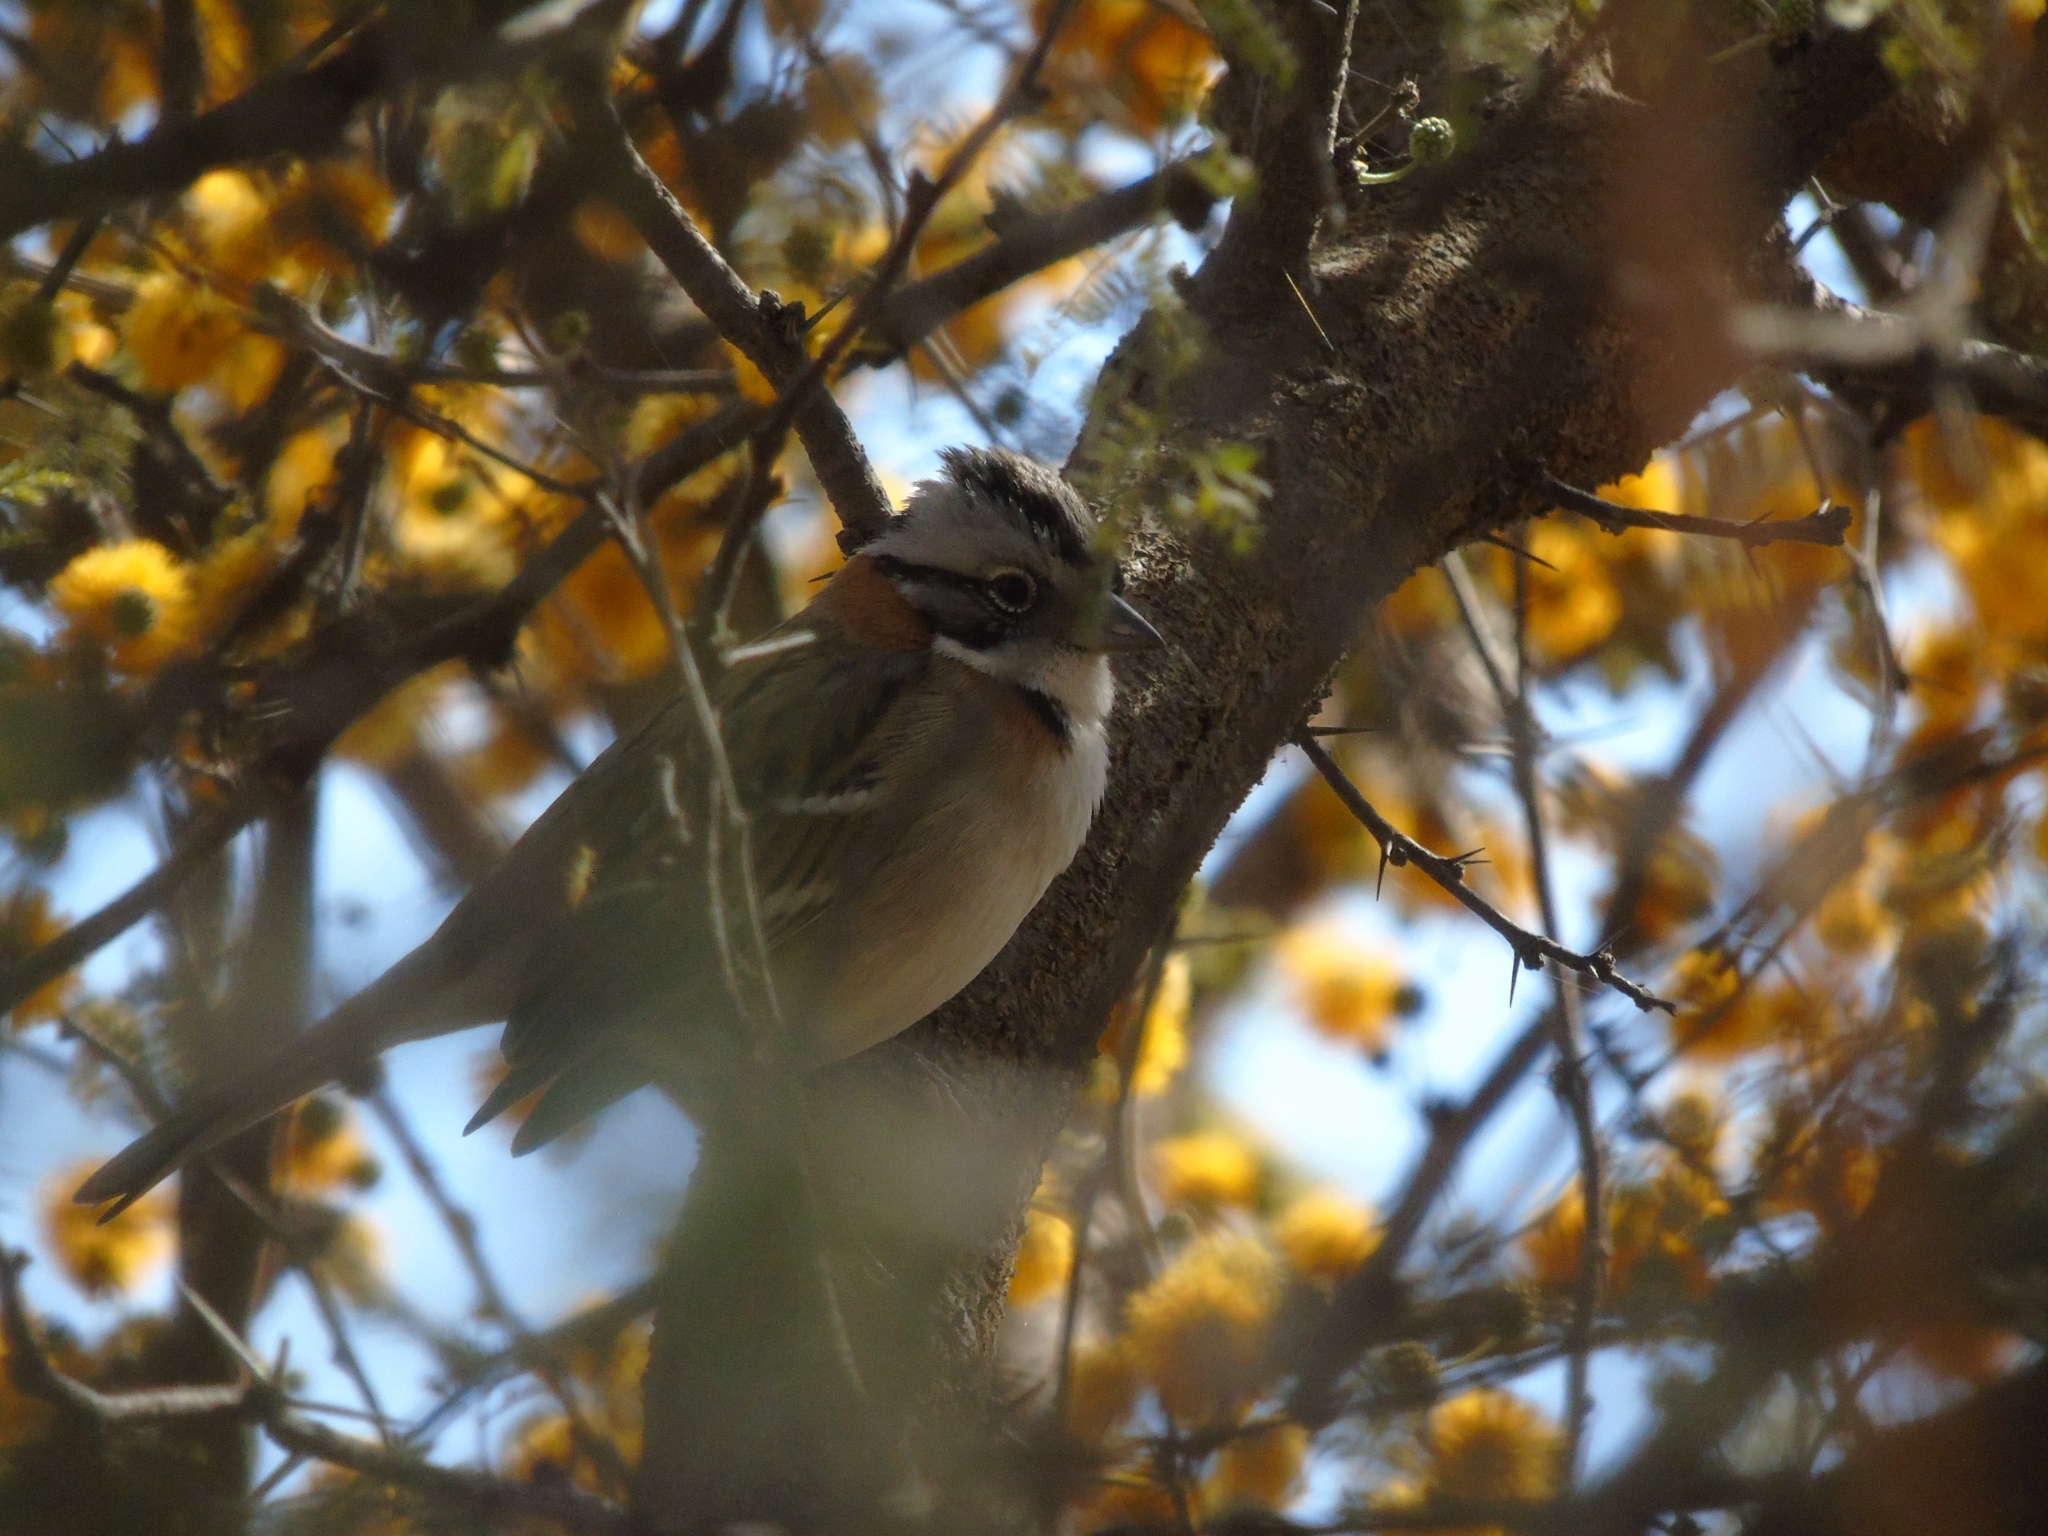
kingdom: Animalia
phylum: Chordata
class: Aves
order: Passeriformes
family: Passerellidae
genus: Zonotrichia
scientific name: Zonotrichia capensis
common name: Rufous-collared sparrow
